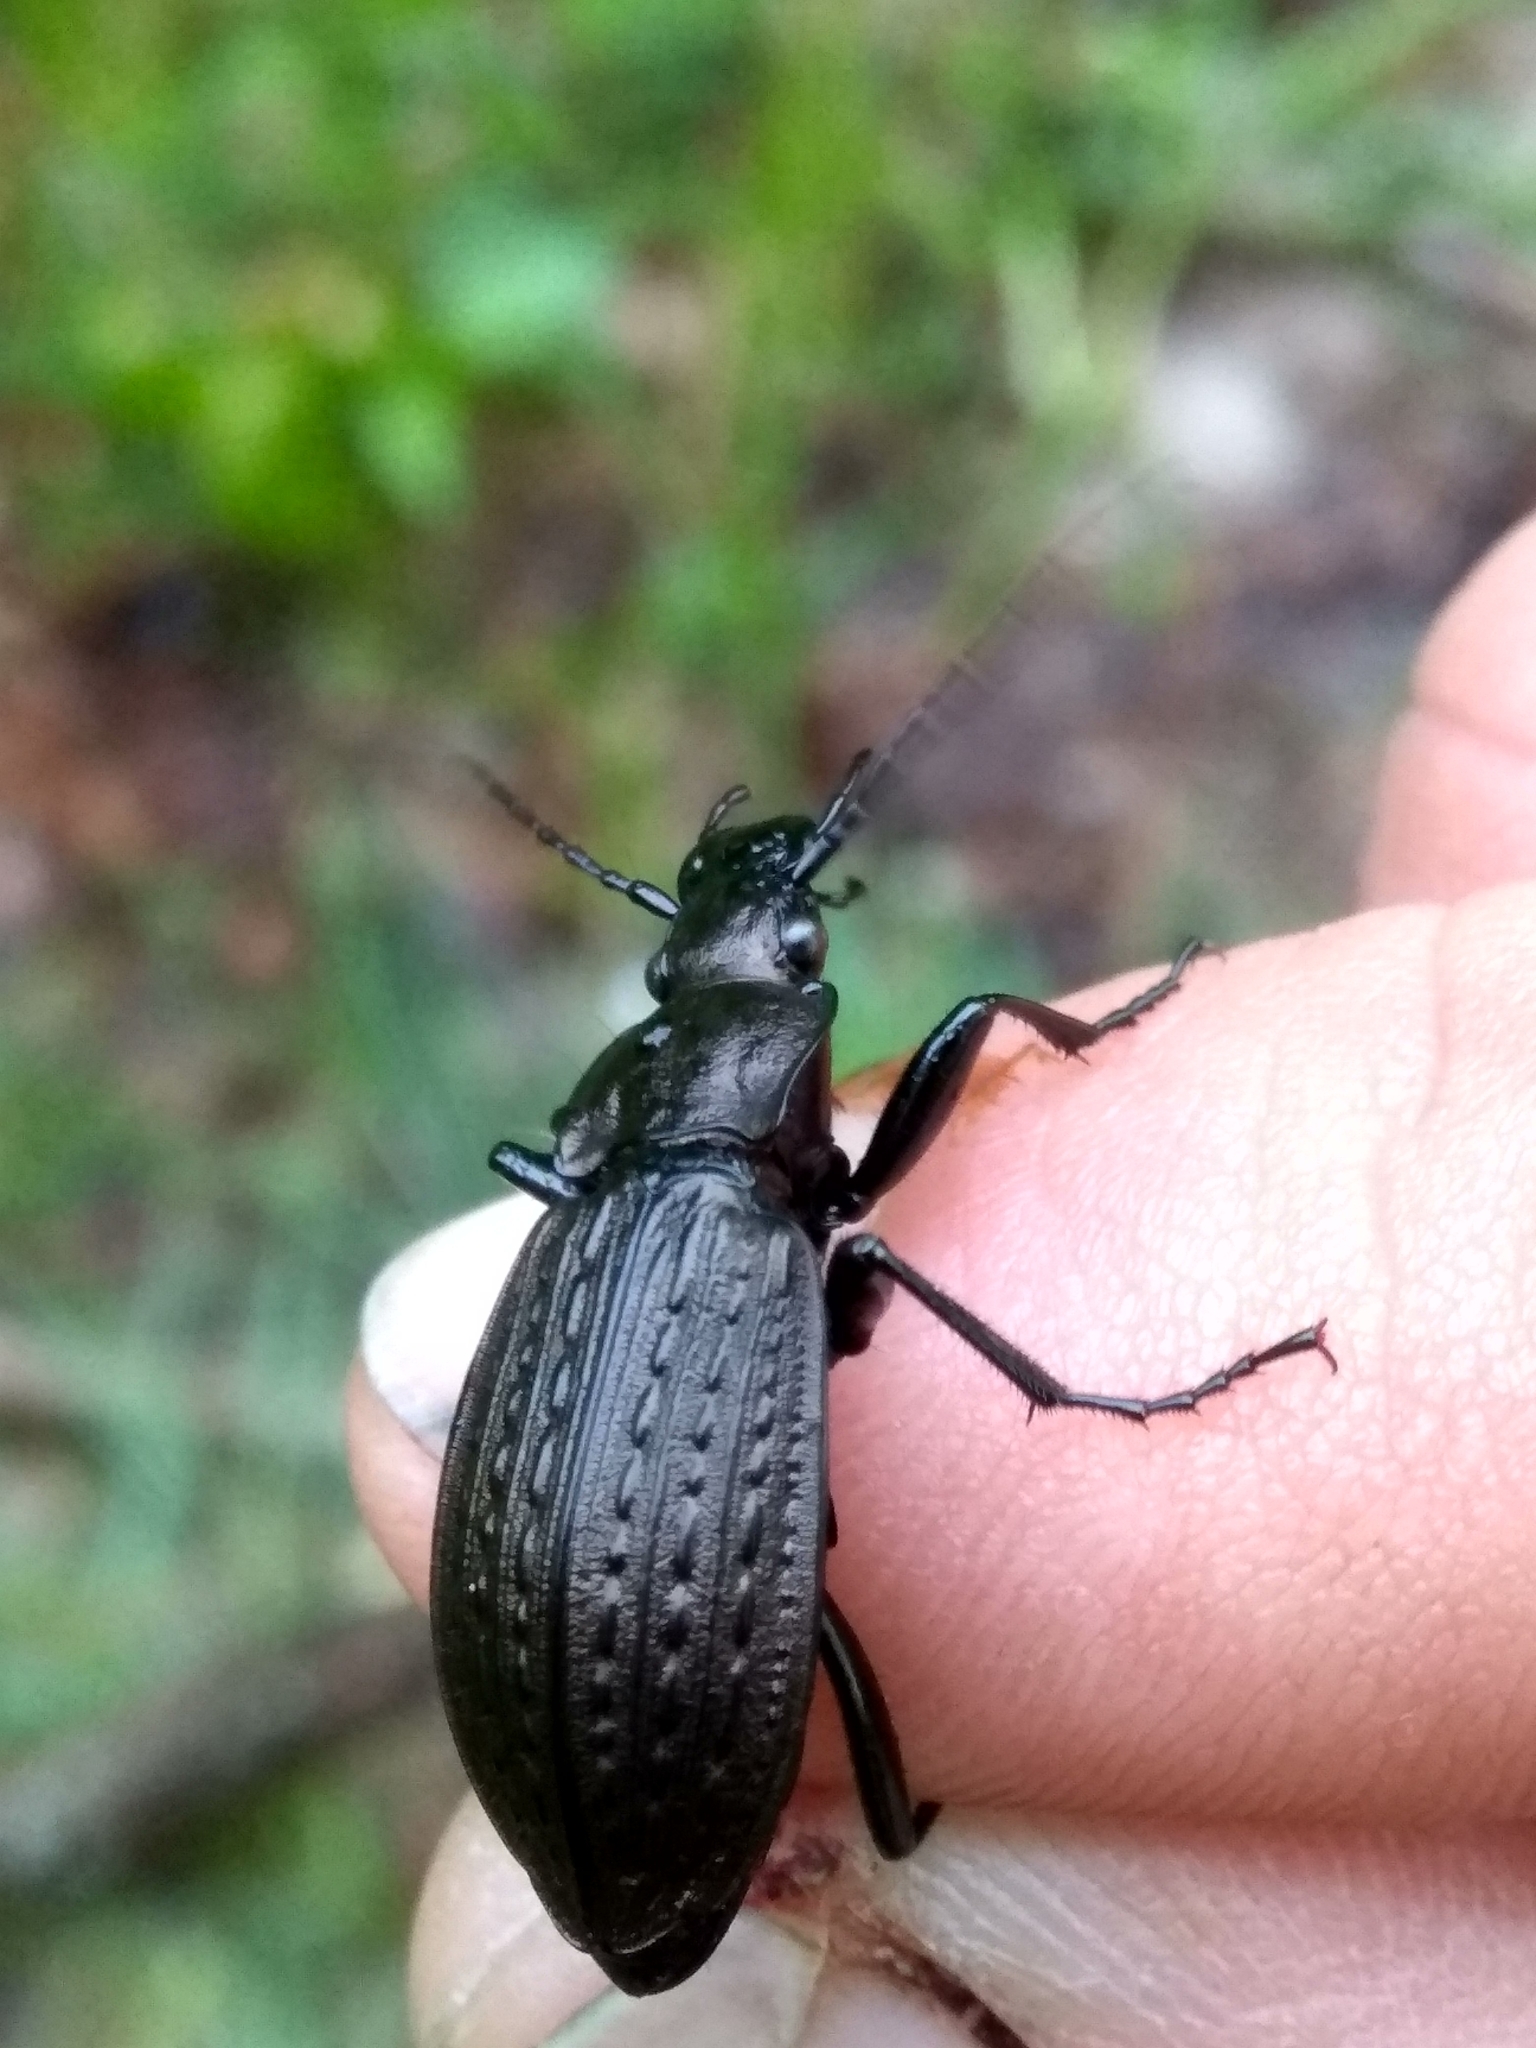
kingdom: Animalia
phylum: Arthropoda
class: Insecta
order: Coleoptera
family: Carabidae
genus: Carabus
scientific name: Carabus granulatus
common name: Granulate ground beetle
